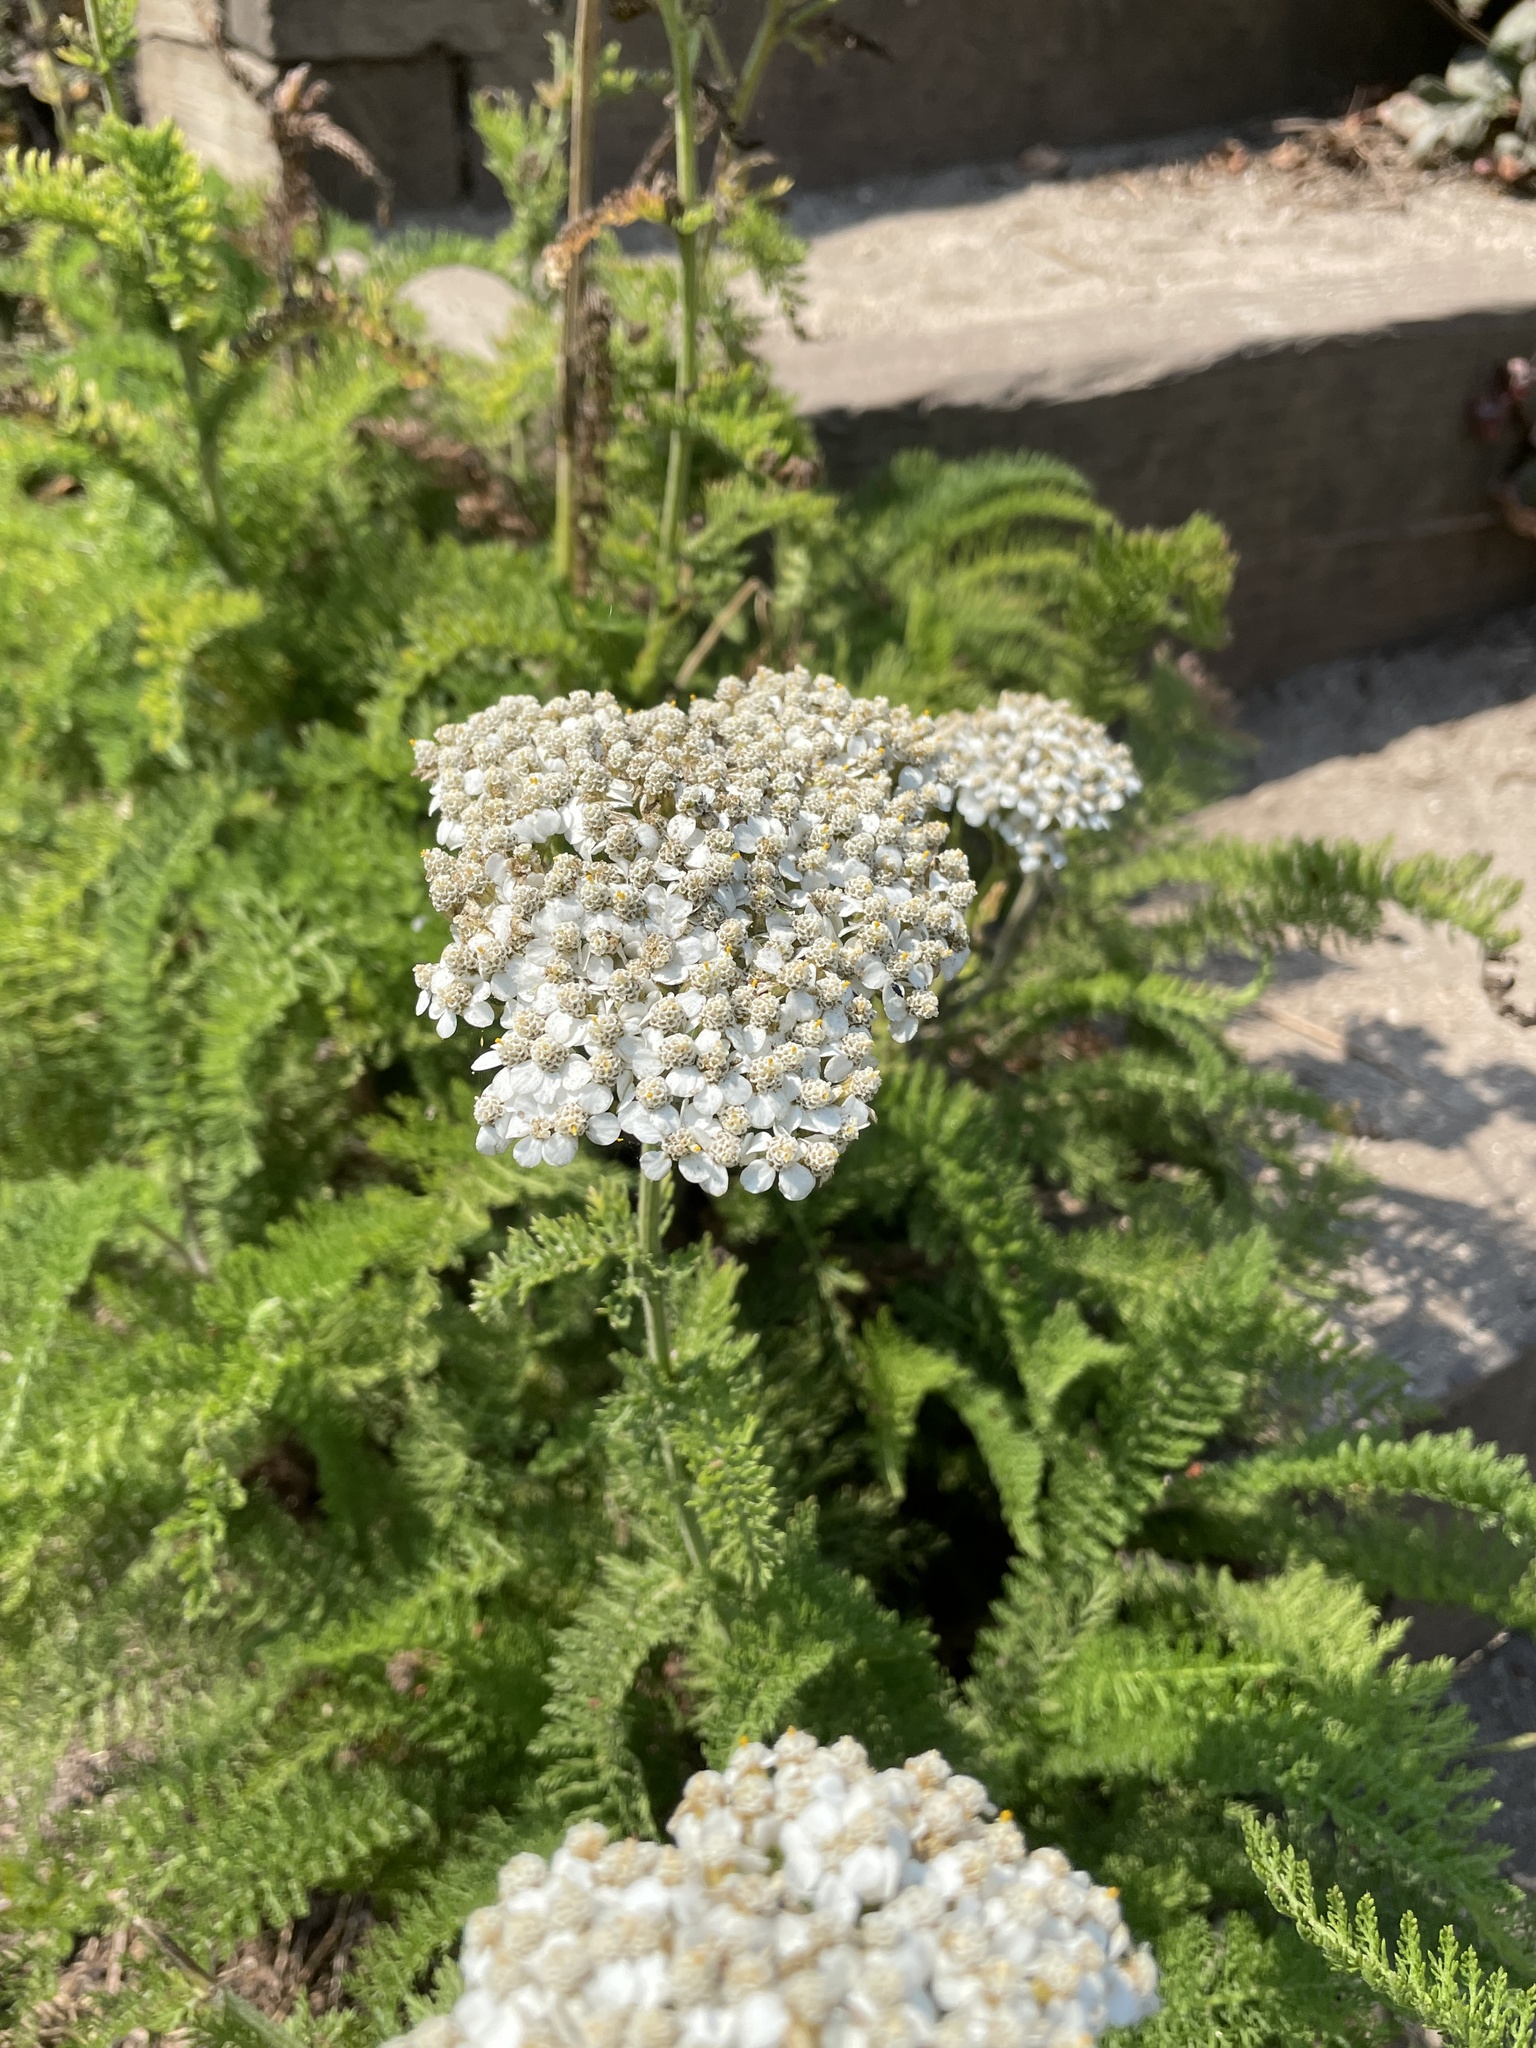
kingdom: Plantae
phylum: Tracheophyta
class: Magnoliopsida
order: Asterales
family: Asteraceae
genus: Achillea
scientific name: Achillea millefolium
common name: Yarrow
